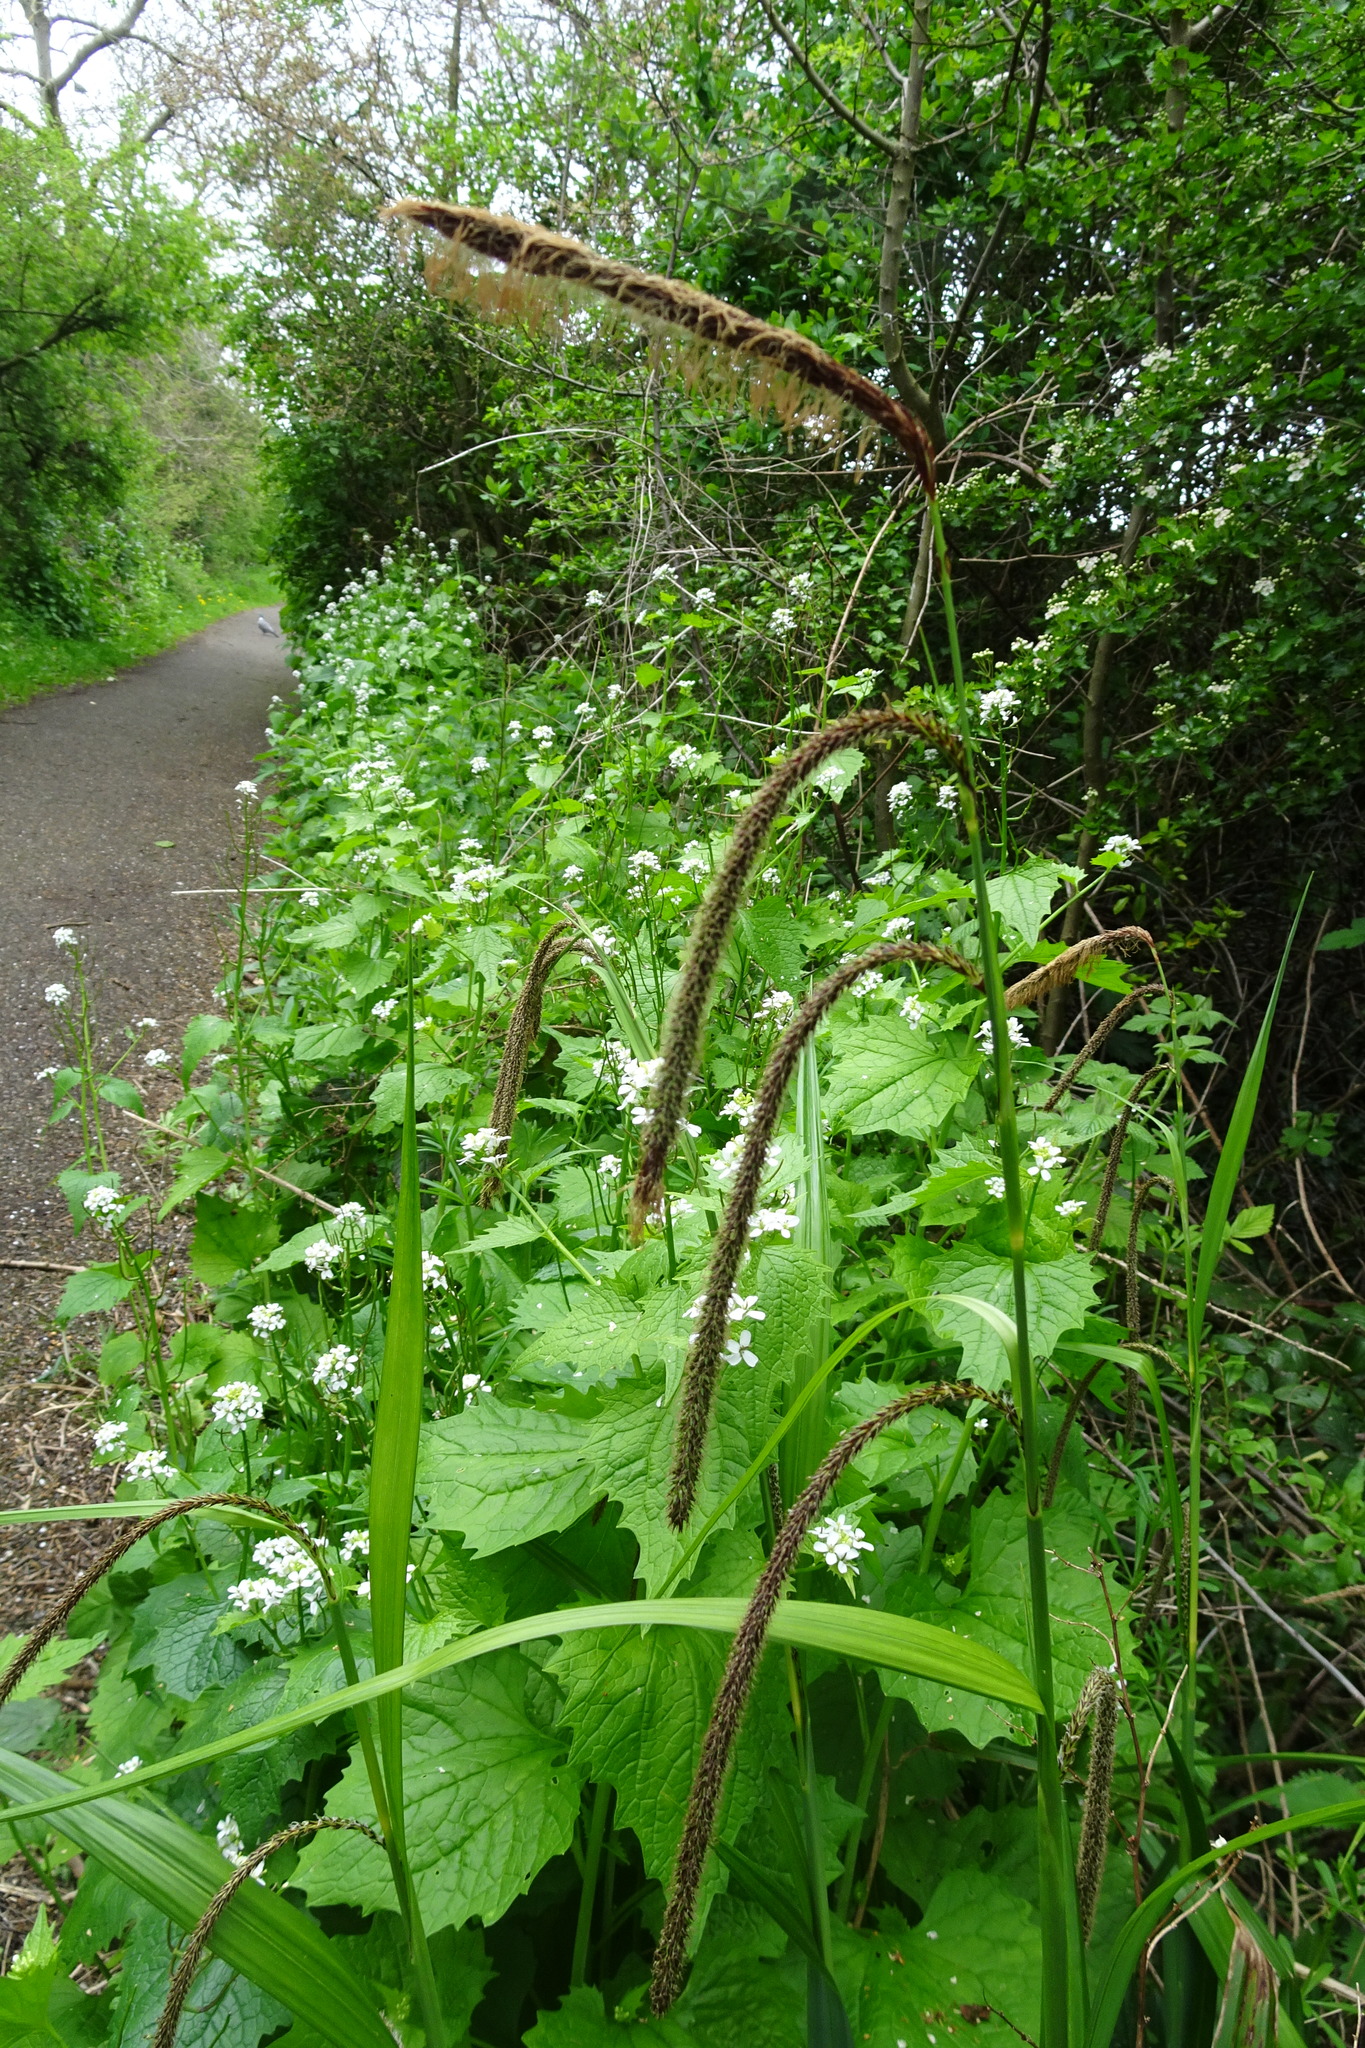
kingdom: Plantae
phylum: Tracheophyta
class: Liliopsida
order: Poales
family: Cyperaceae
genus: Carex
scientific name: Carex pendula
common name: Pendulous sedge
